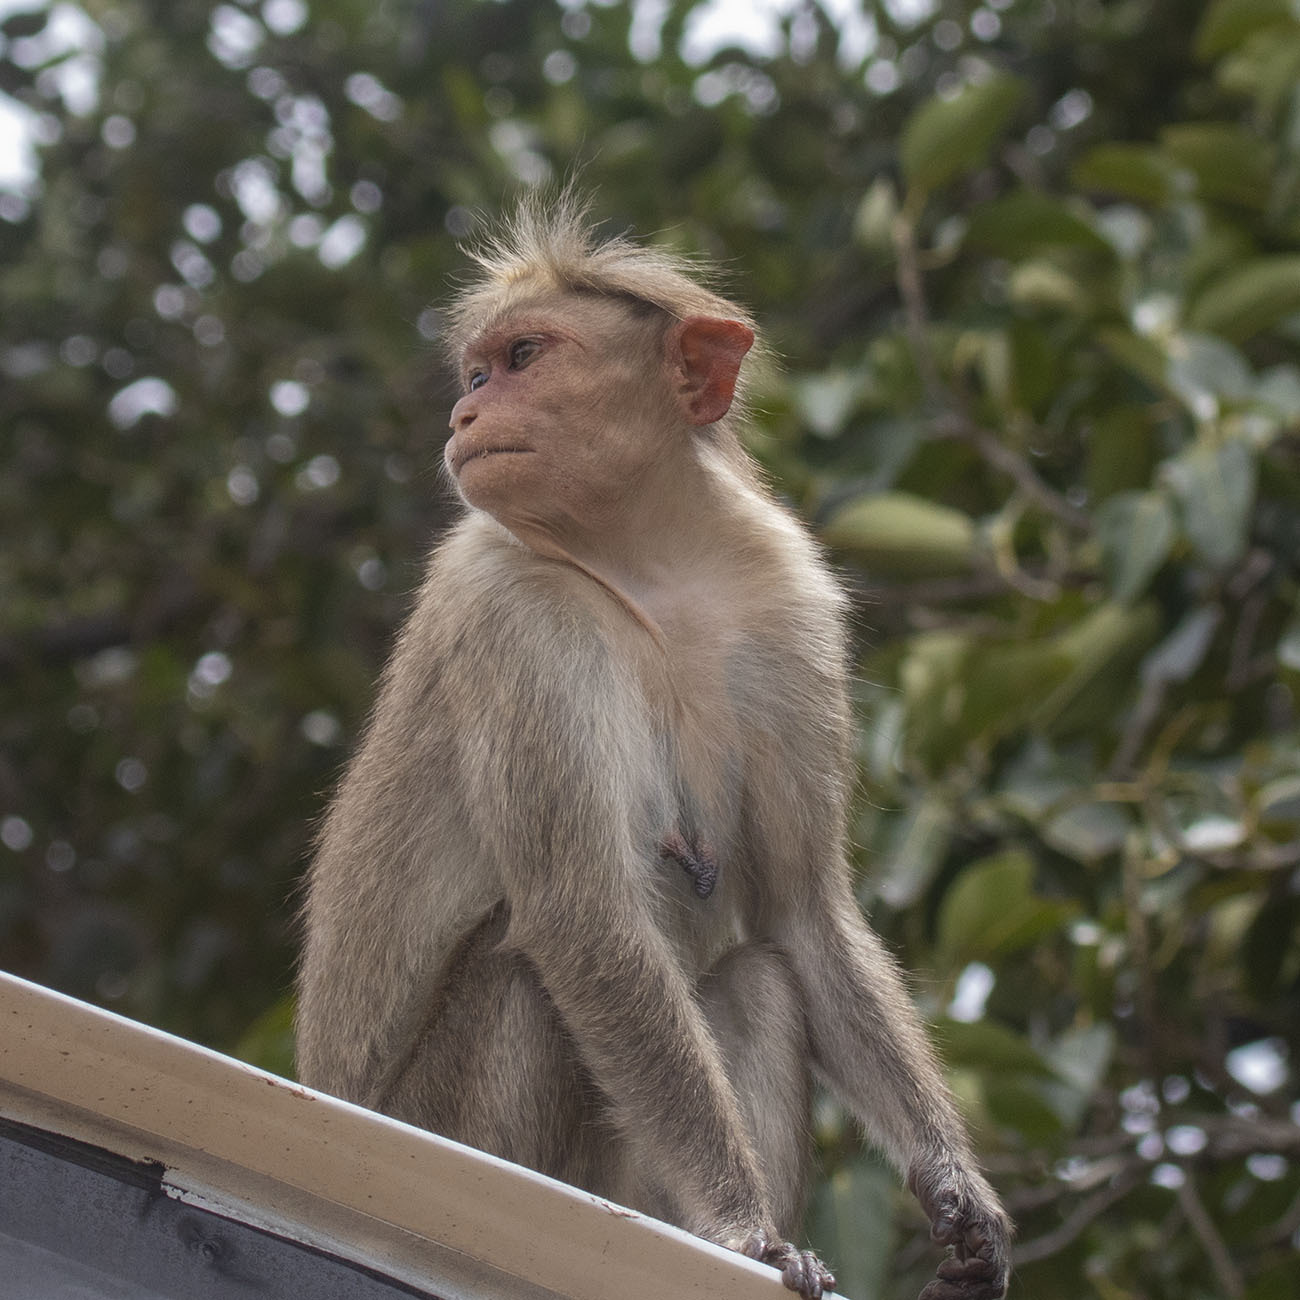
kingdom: Animalia
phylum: Chordata
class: Mammalia
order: Primates
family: Cercopithecidae
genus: Macaca
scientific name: Macaca radiata
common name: Bonnet macaque
